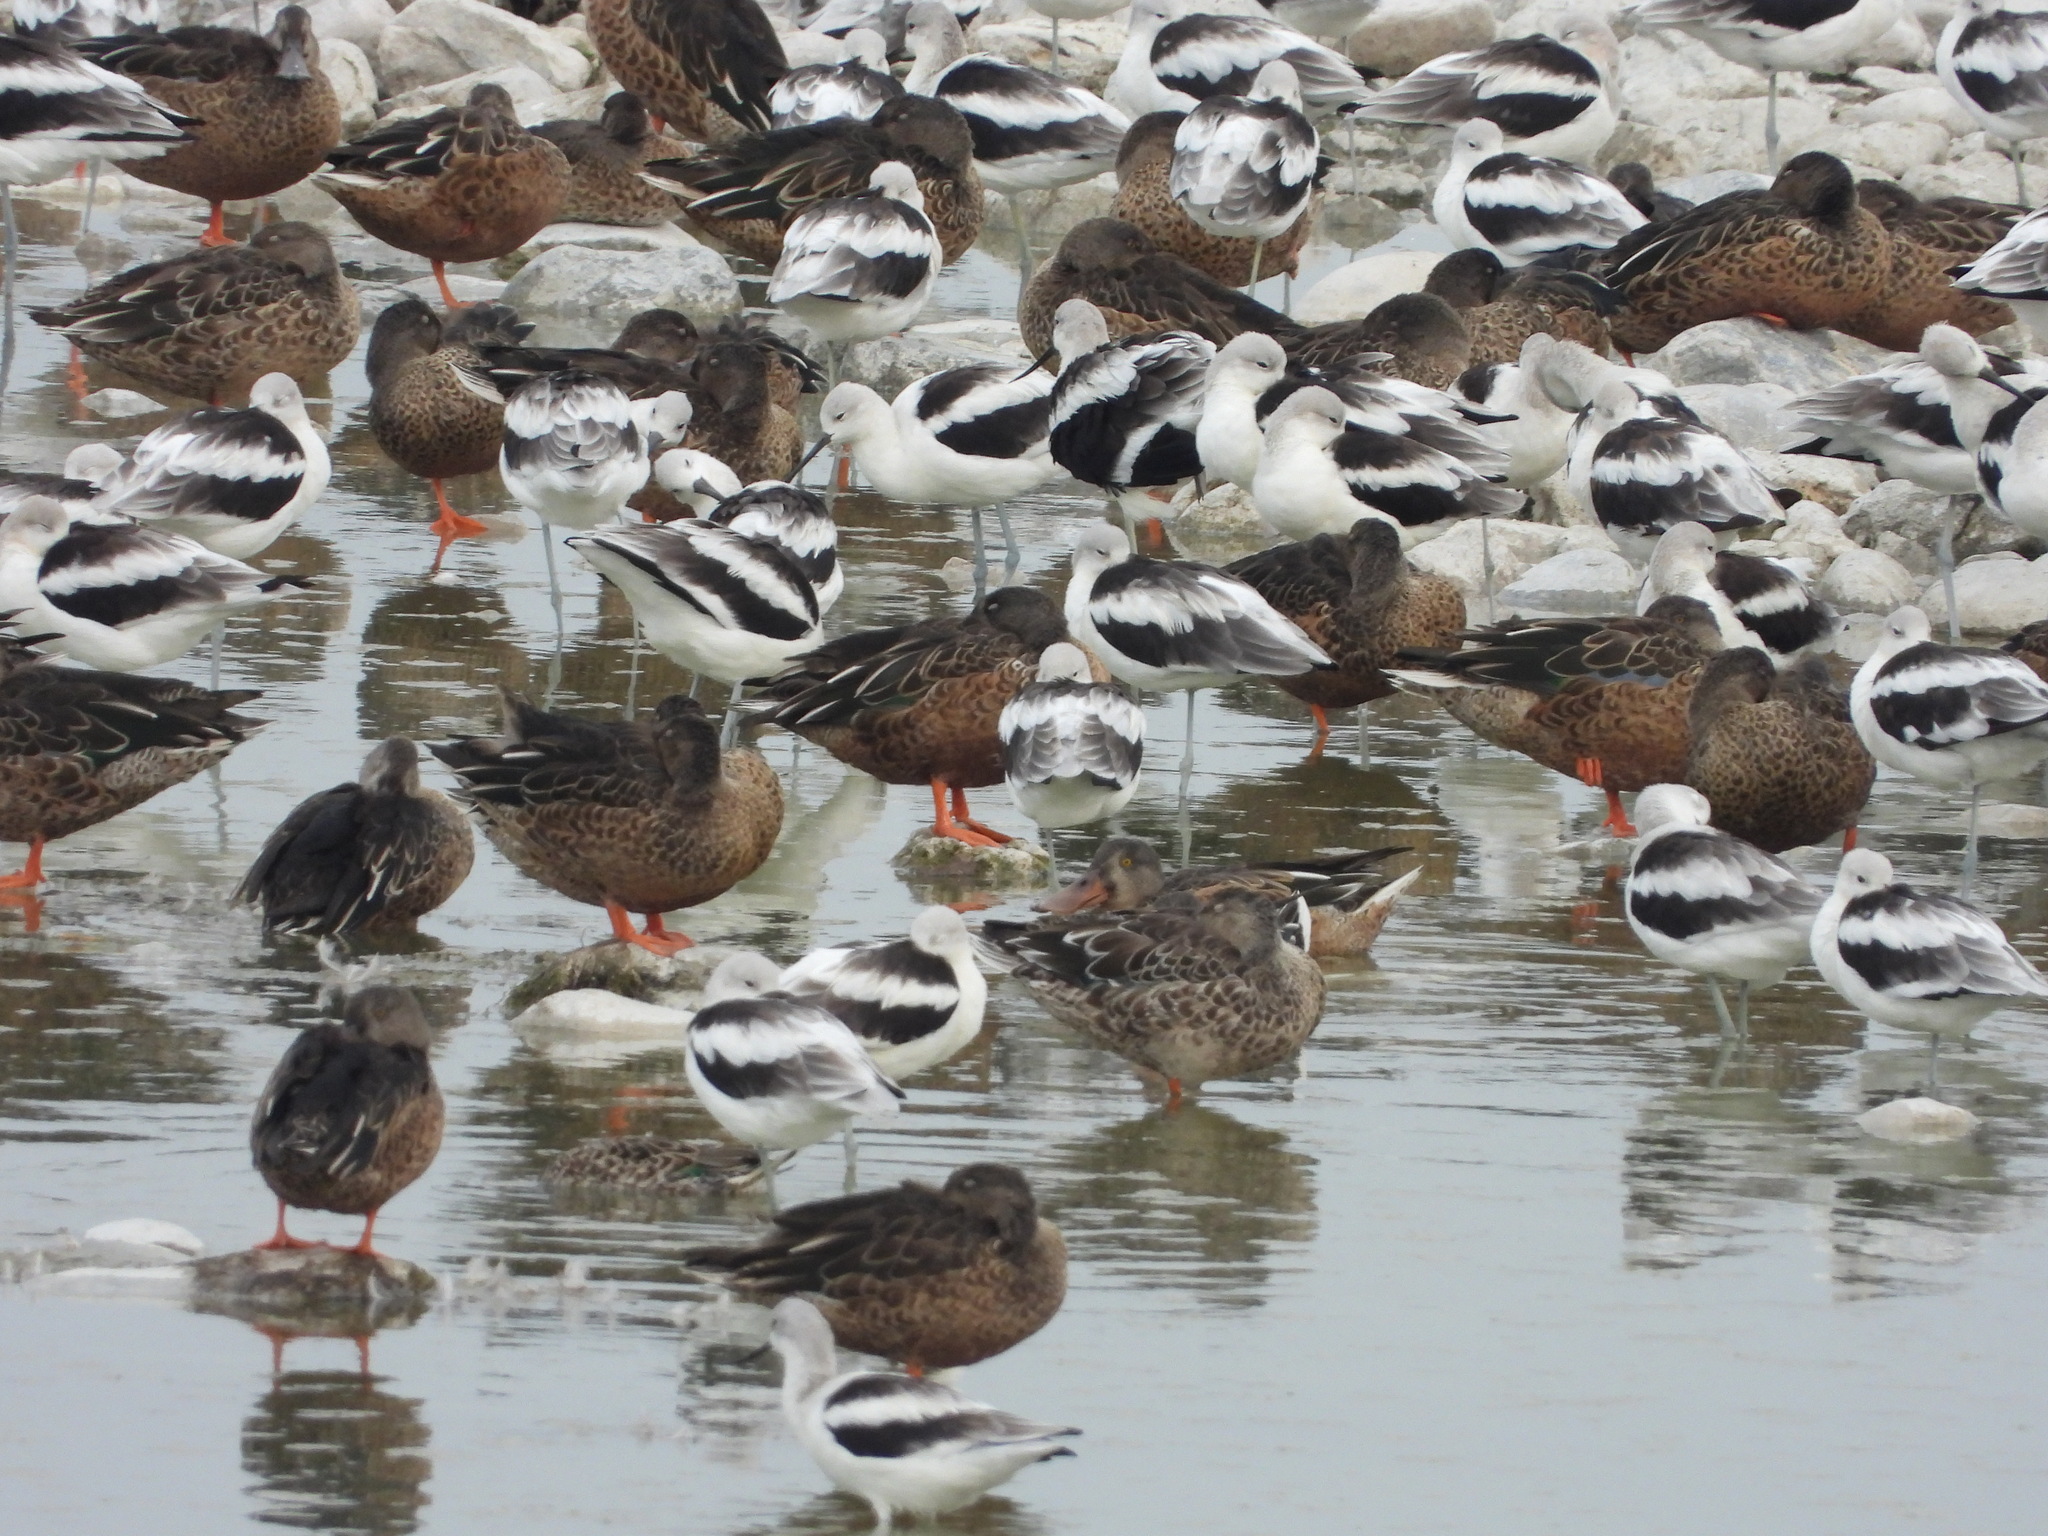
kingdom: Animalia
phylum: Chordata
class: Aves
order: Charadriiformes
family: Recurvirostridae
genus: Recurvirostra
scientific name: Recurvirostra americana
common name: American avocet
